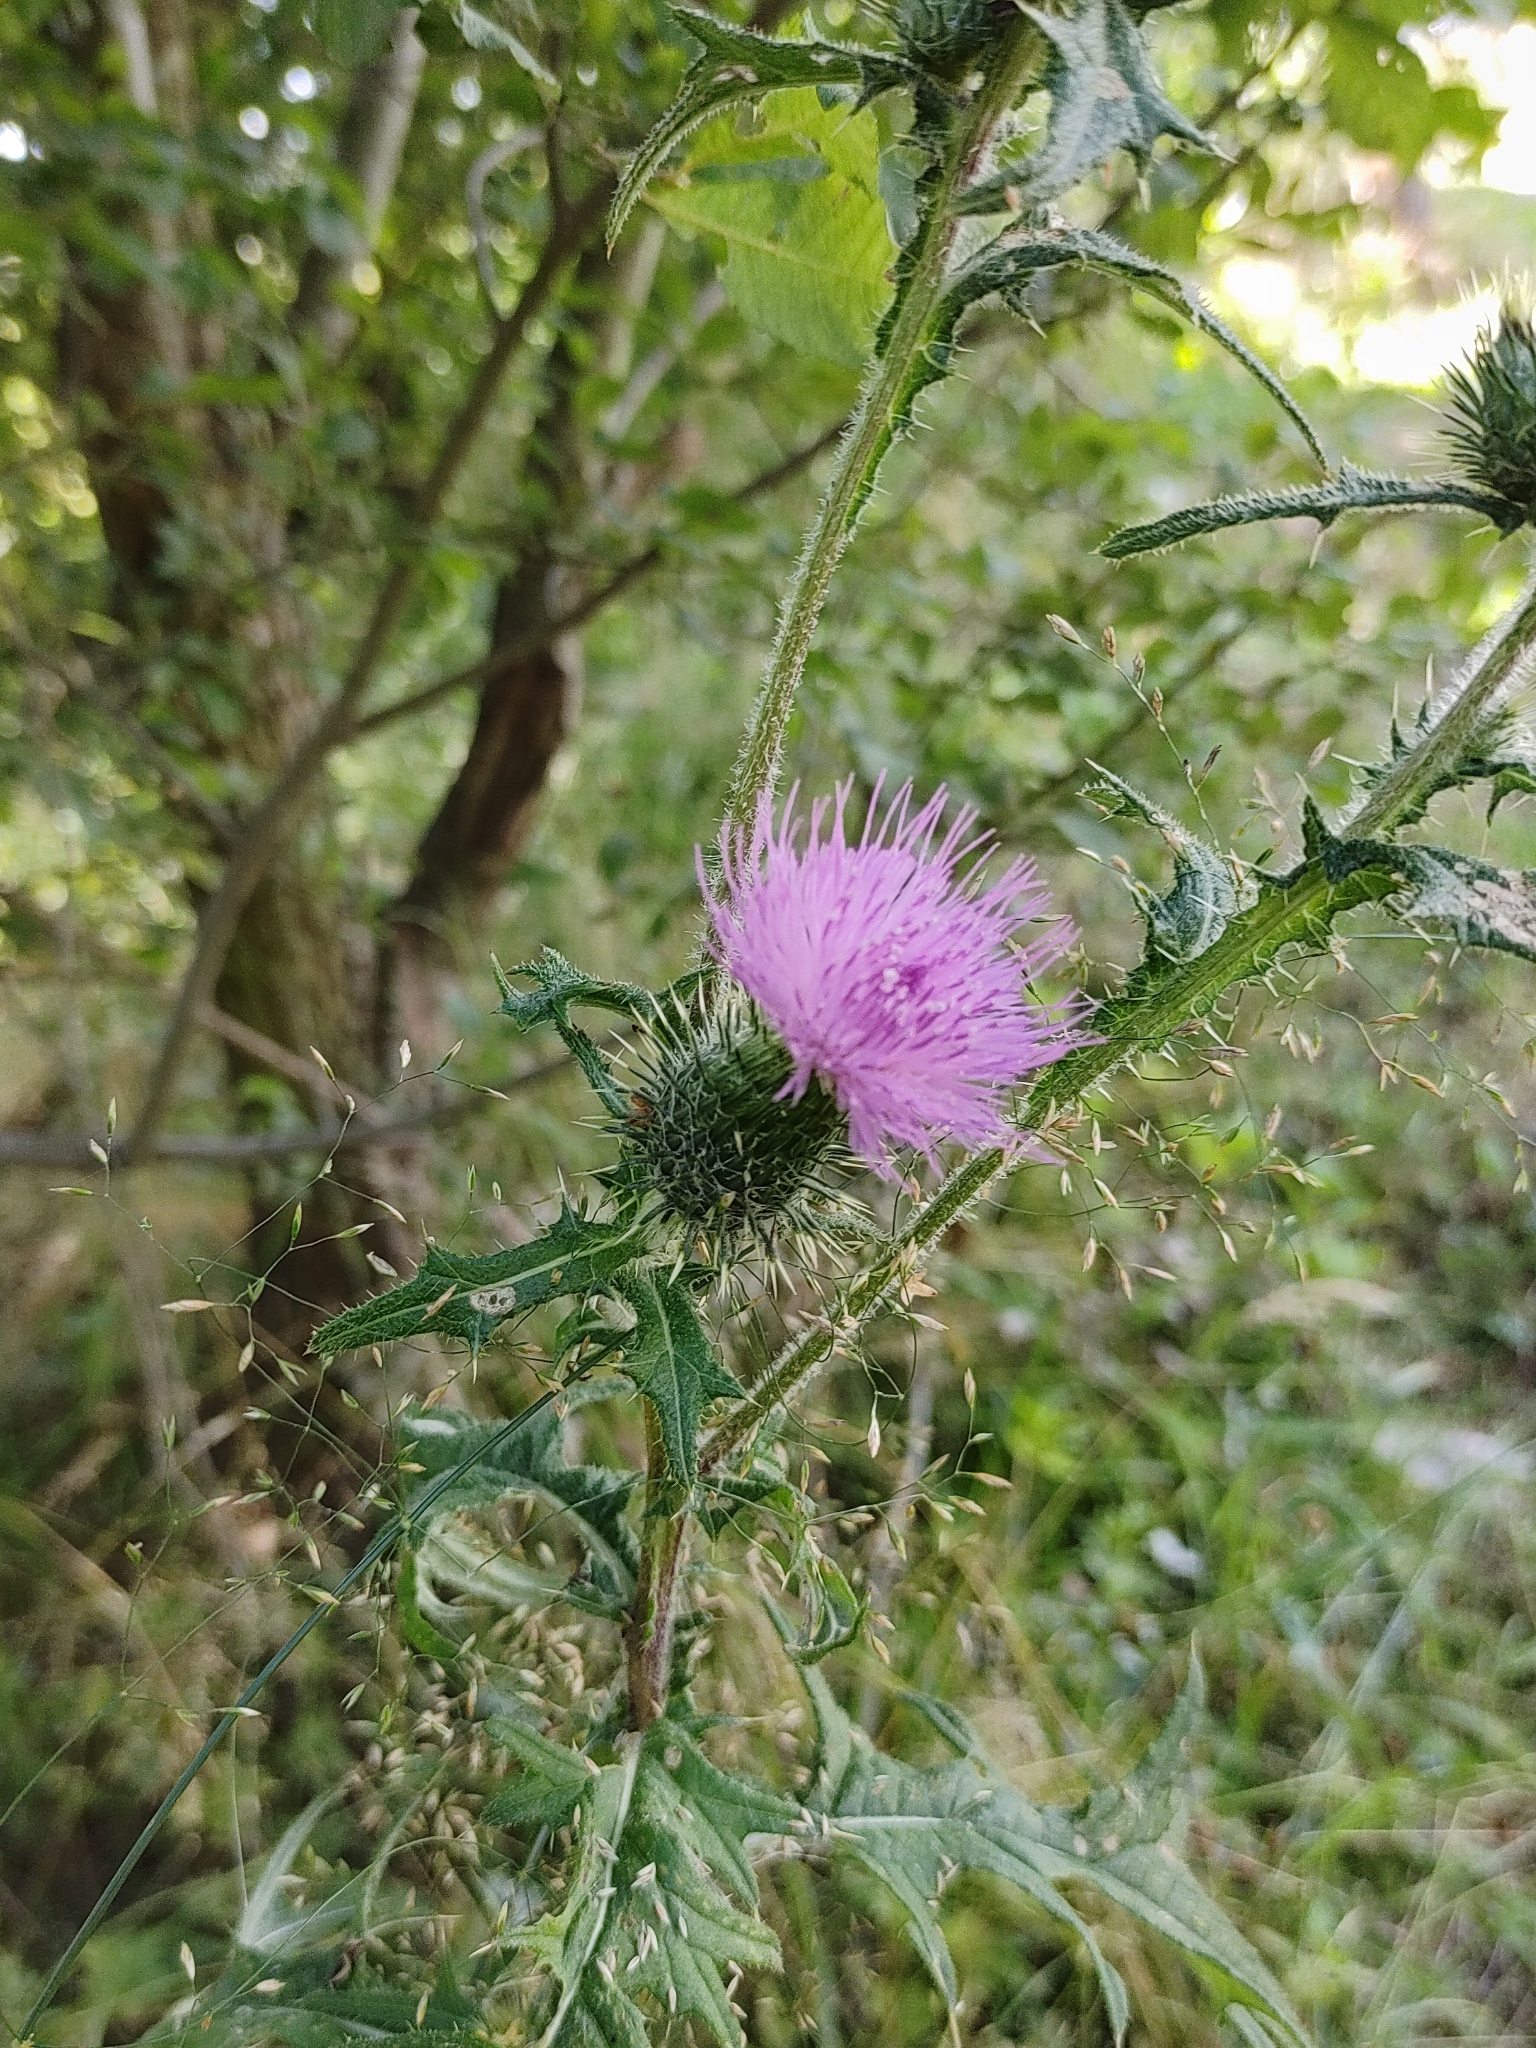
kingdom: Plantae
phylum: Tracheophyta
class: Magnoliopsida
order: Asterales
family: Asteraceae
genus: Cirsium
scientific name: Cirsium vulgare
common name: Bull thistle
